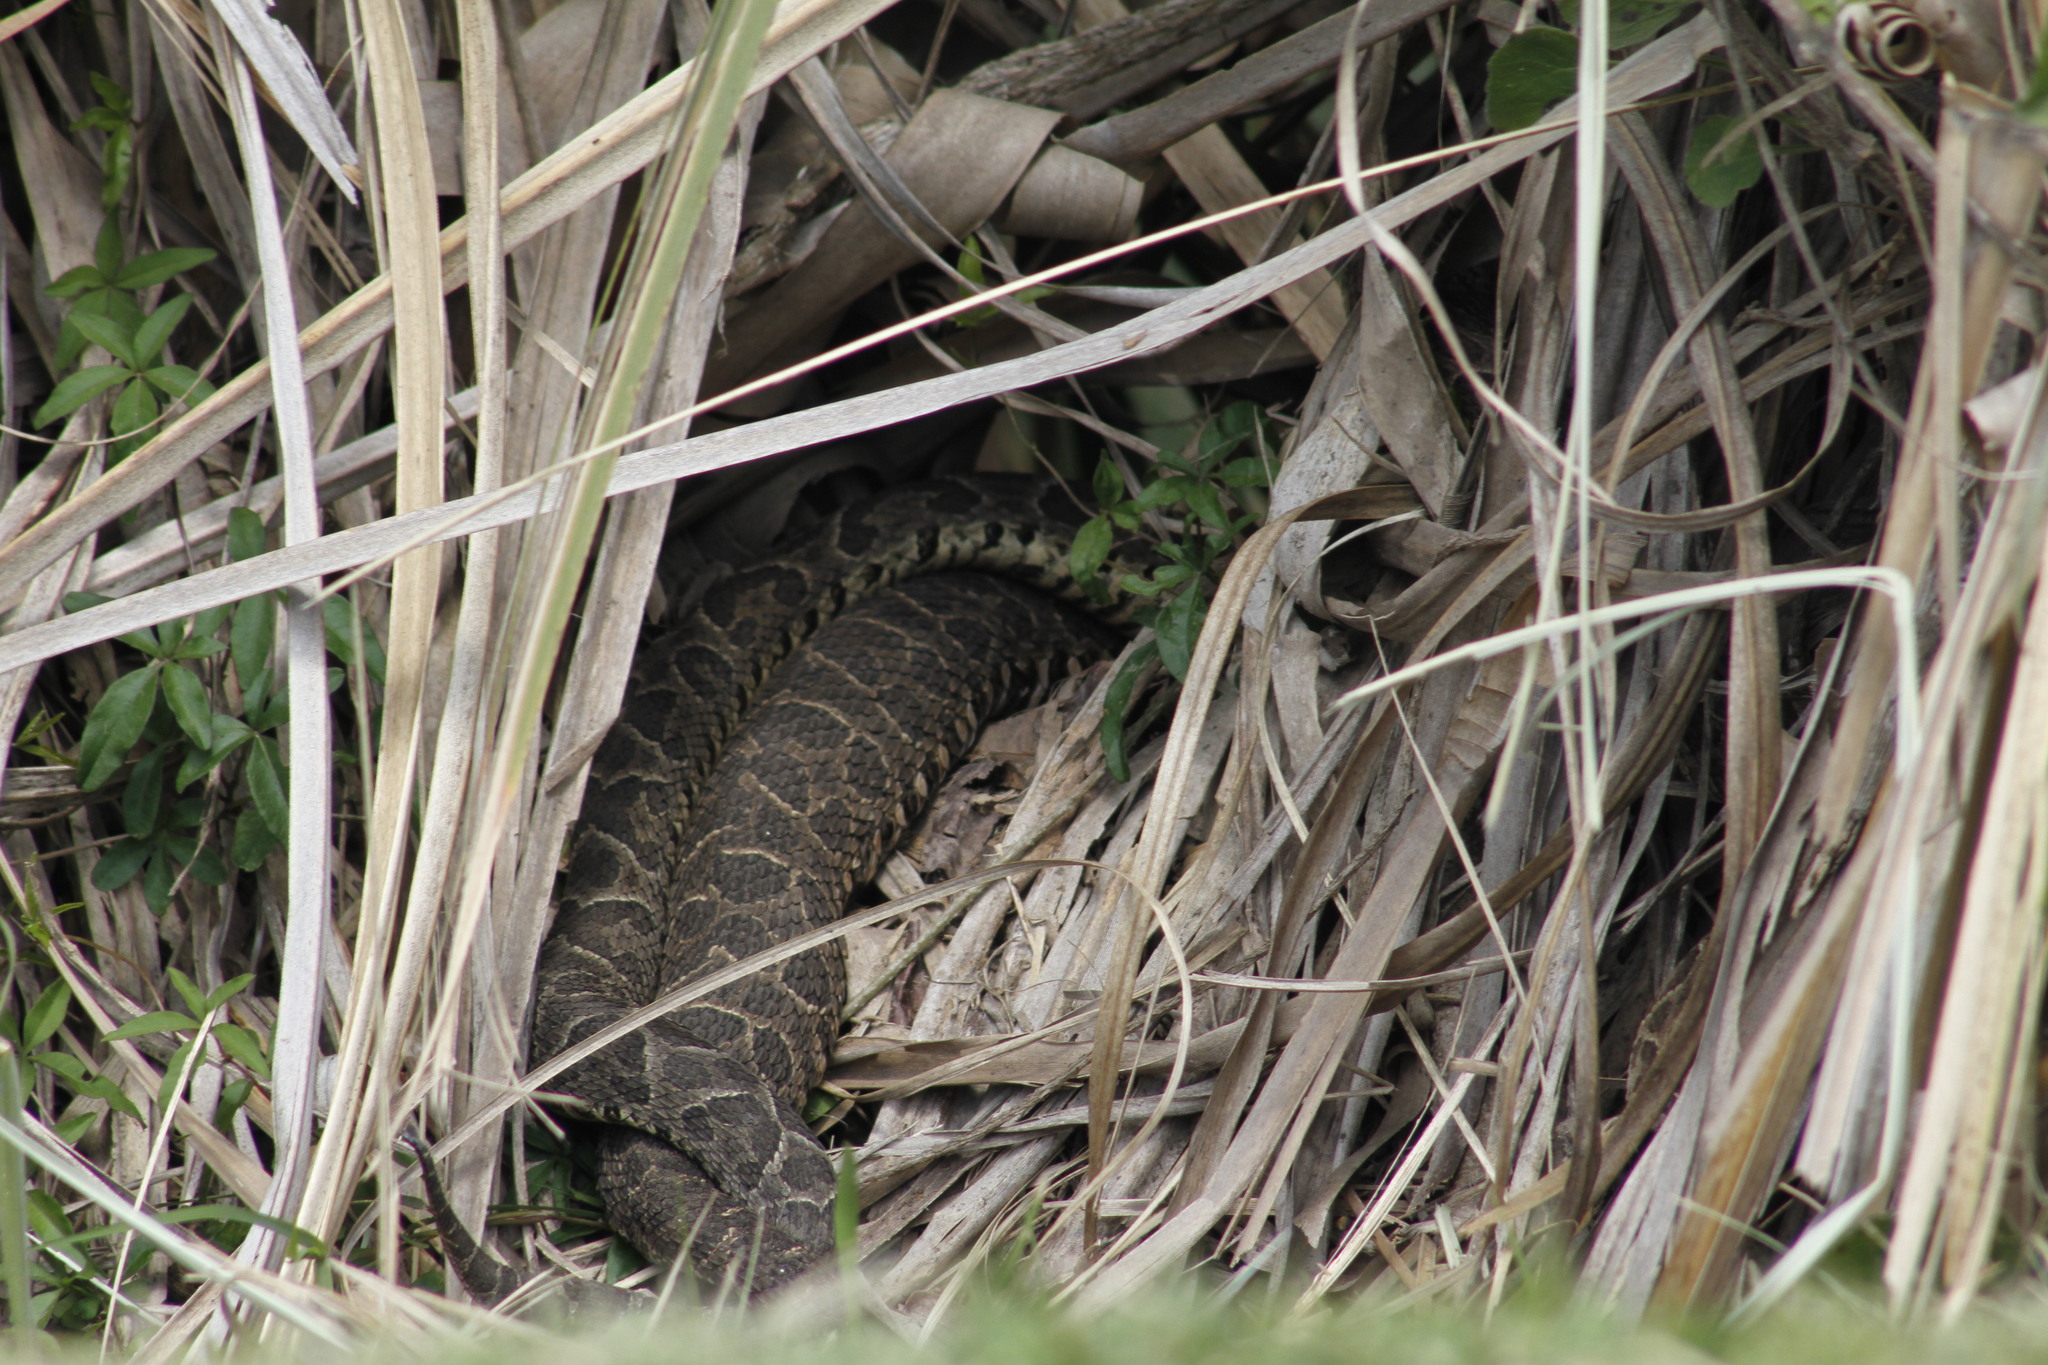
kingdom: Animalia
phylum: Chordata
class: Squamata
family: Viperidae
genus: Bothrops
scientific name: Bothrops alternatus
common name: Urutu
